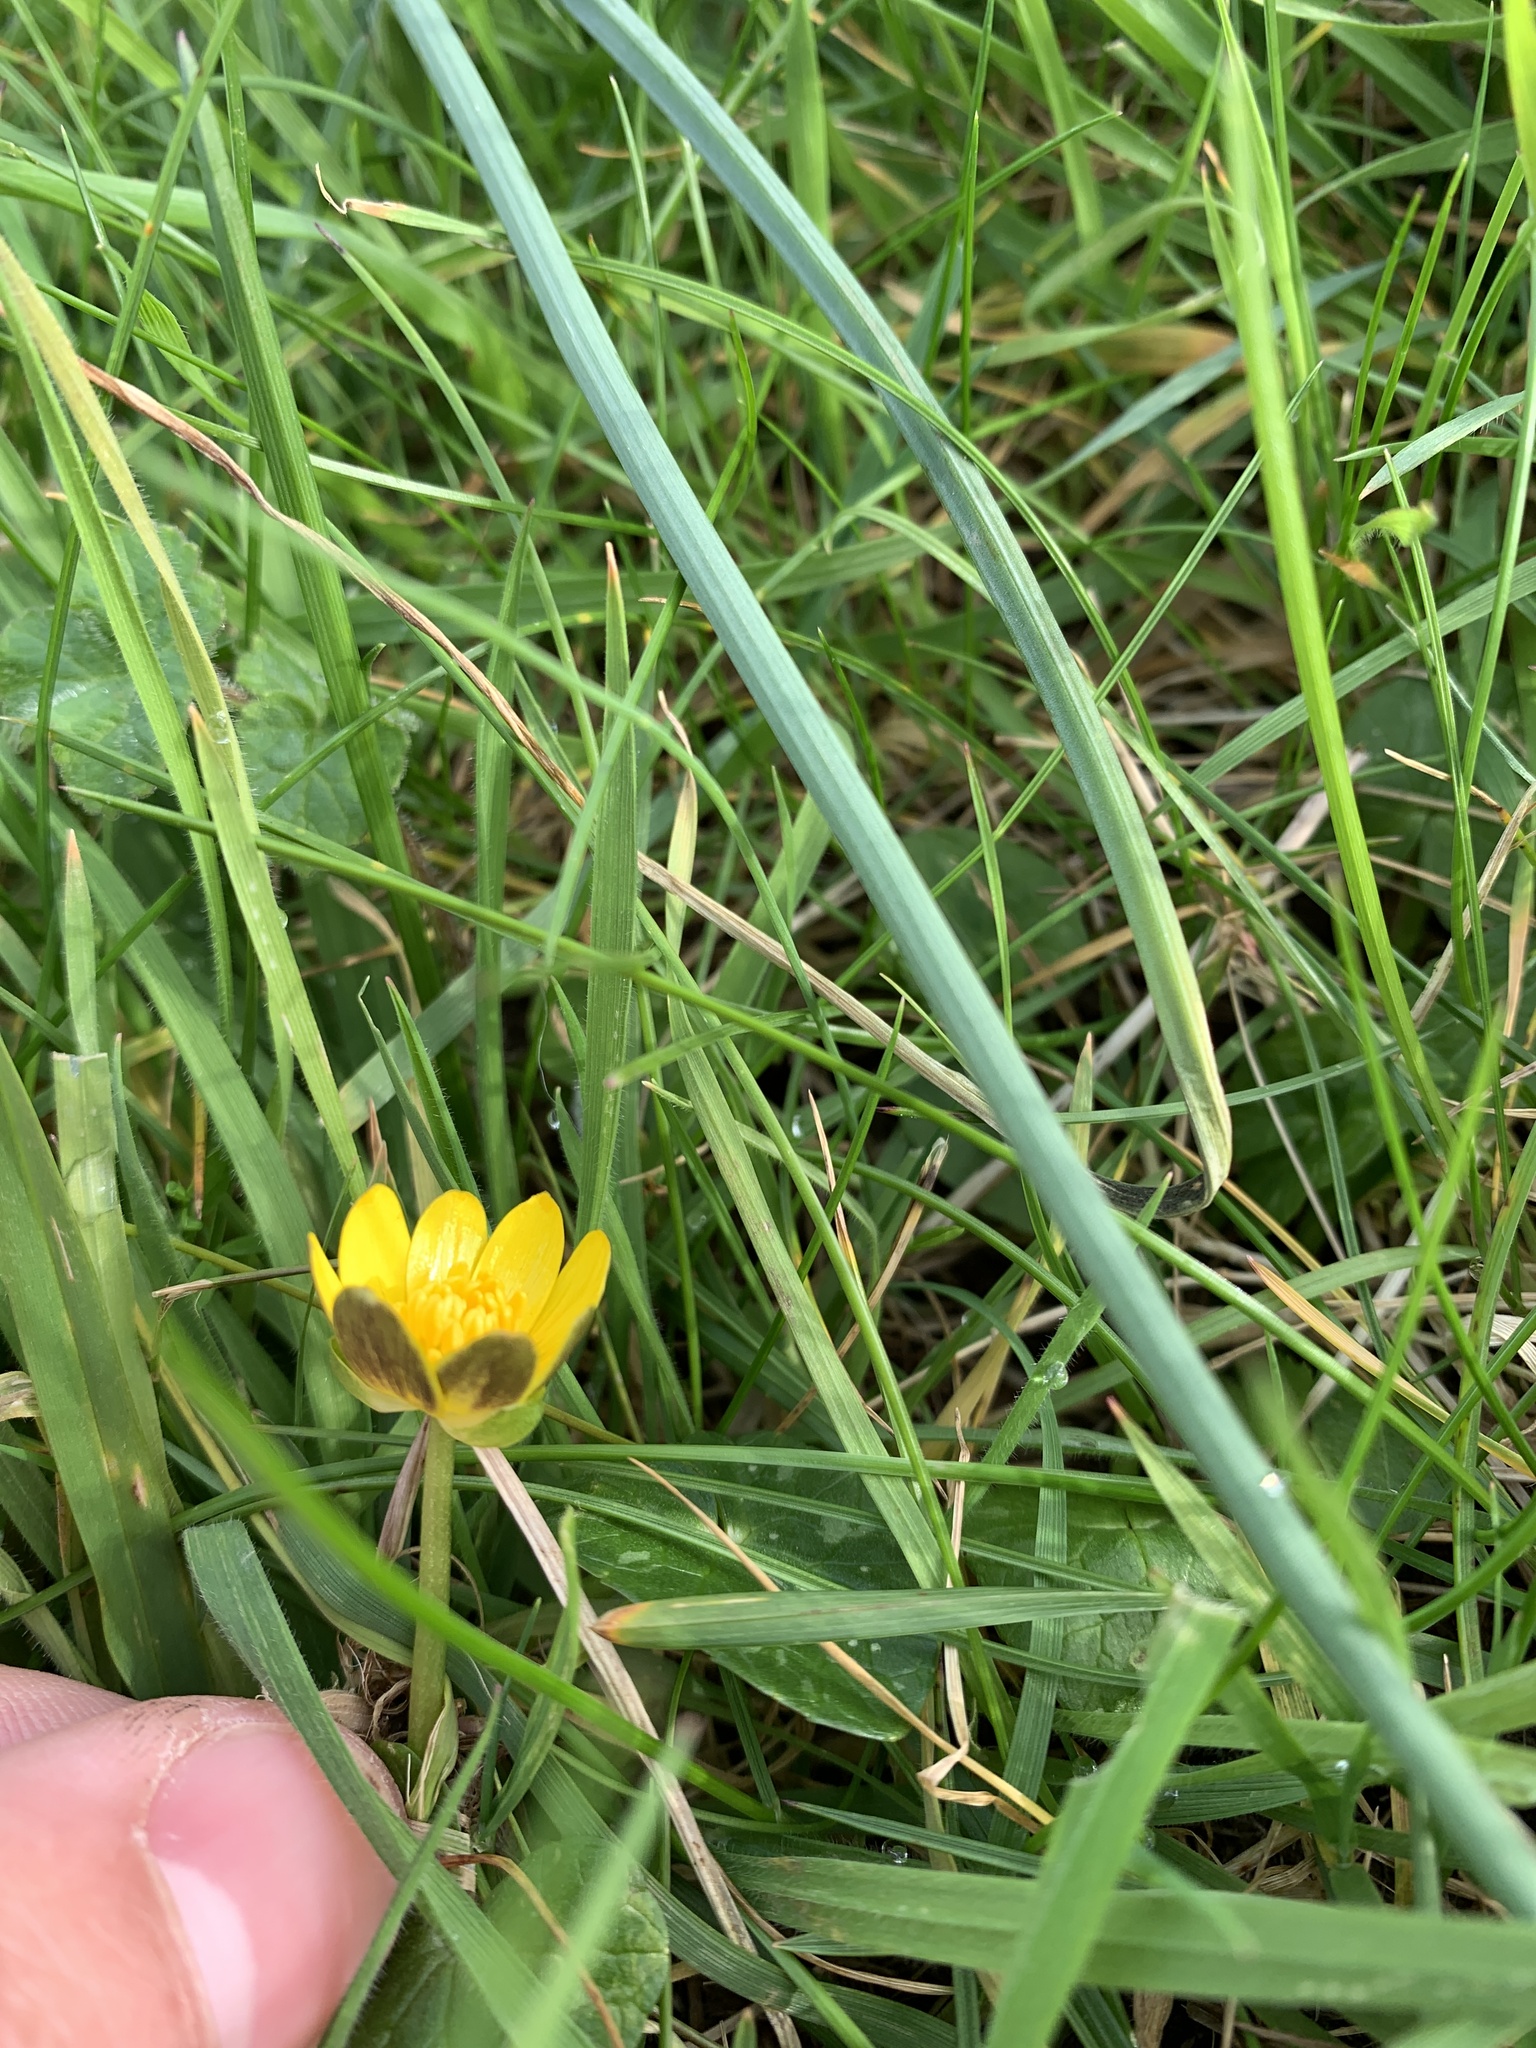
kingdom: Plantae
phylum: Tracheophyta
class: Magnoliopsida
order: Ranunculales
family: Ranunculaceae
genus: Ficaria
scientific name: Ficaria verna
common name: Lesser celandine
